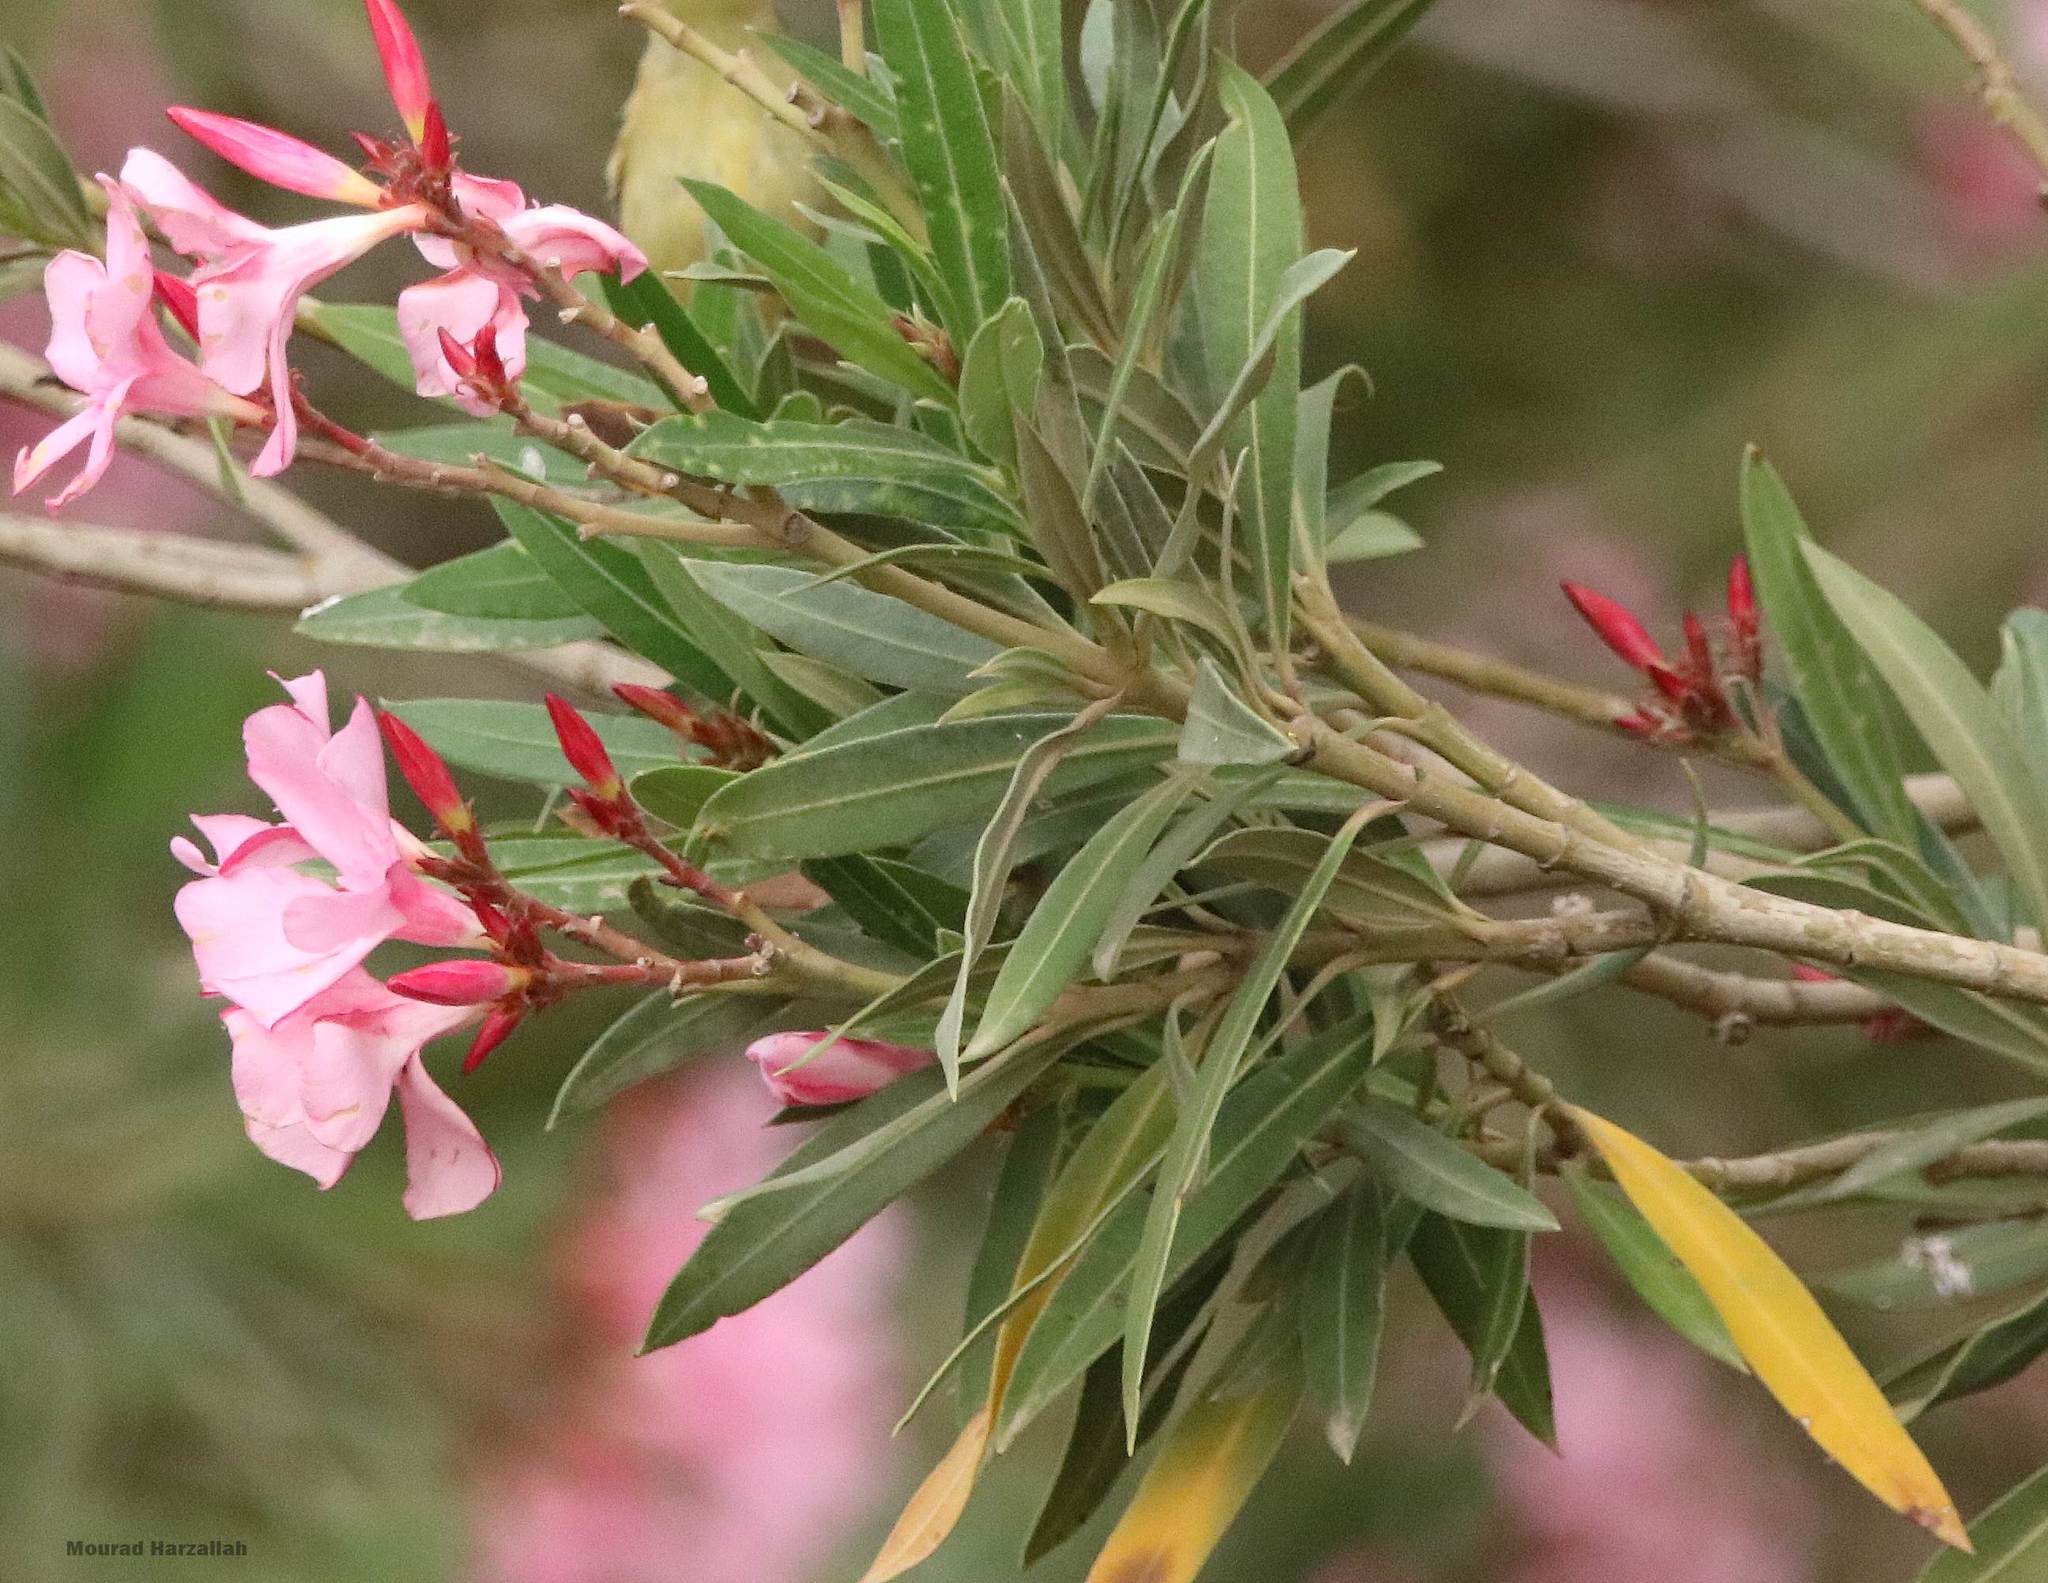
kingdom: Plantae
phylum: Tracheophyta
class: Magnoliopsida
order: Gentianales
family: Apocynaceae
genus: Nerium
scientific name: Nerium oleander
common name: Oleander
